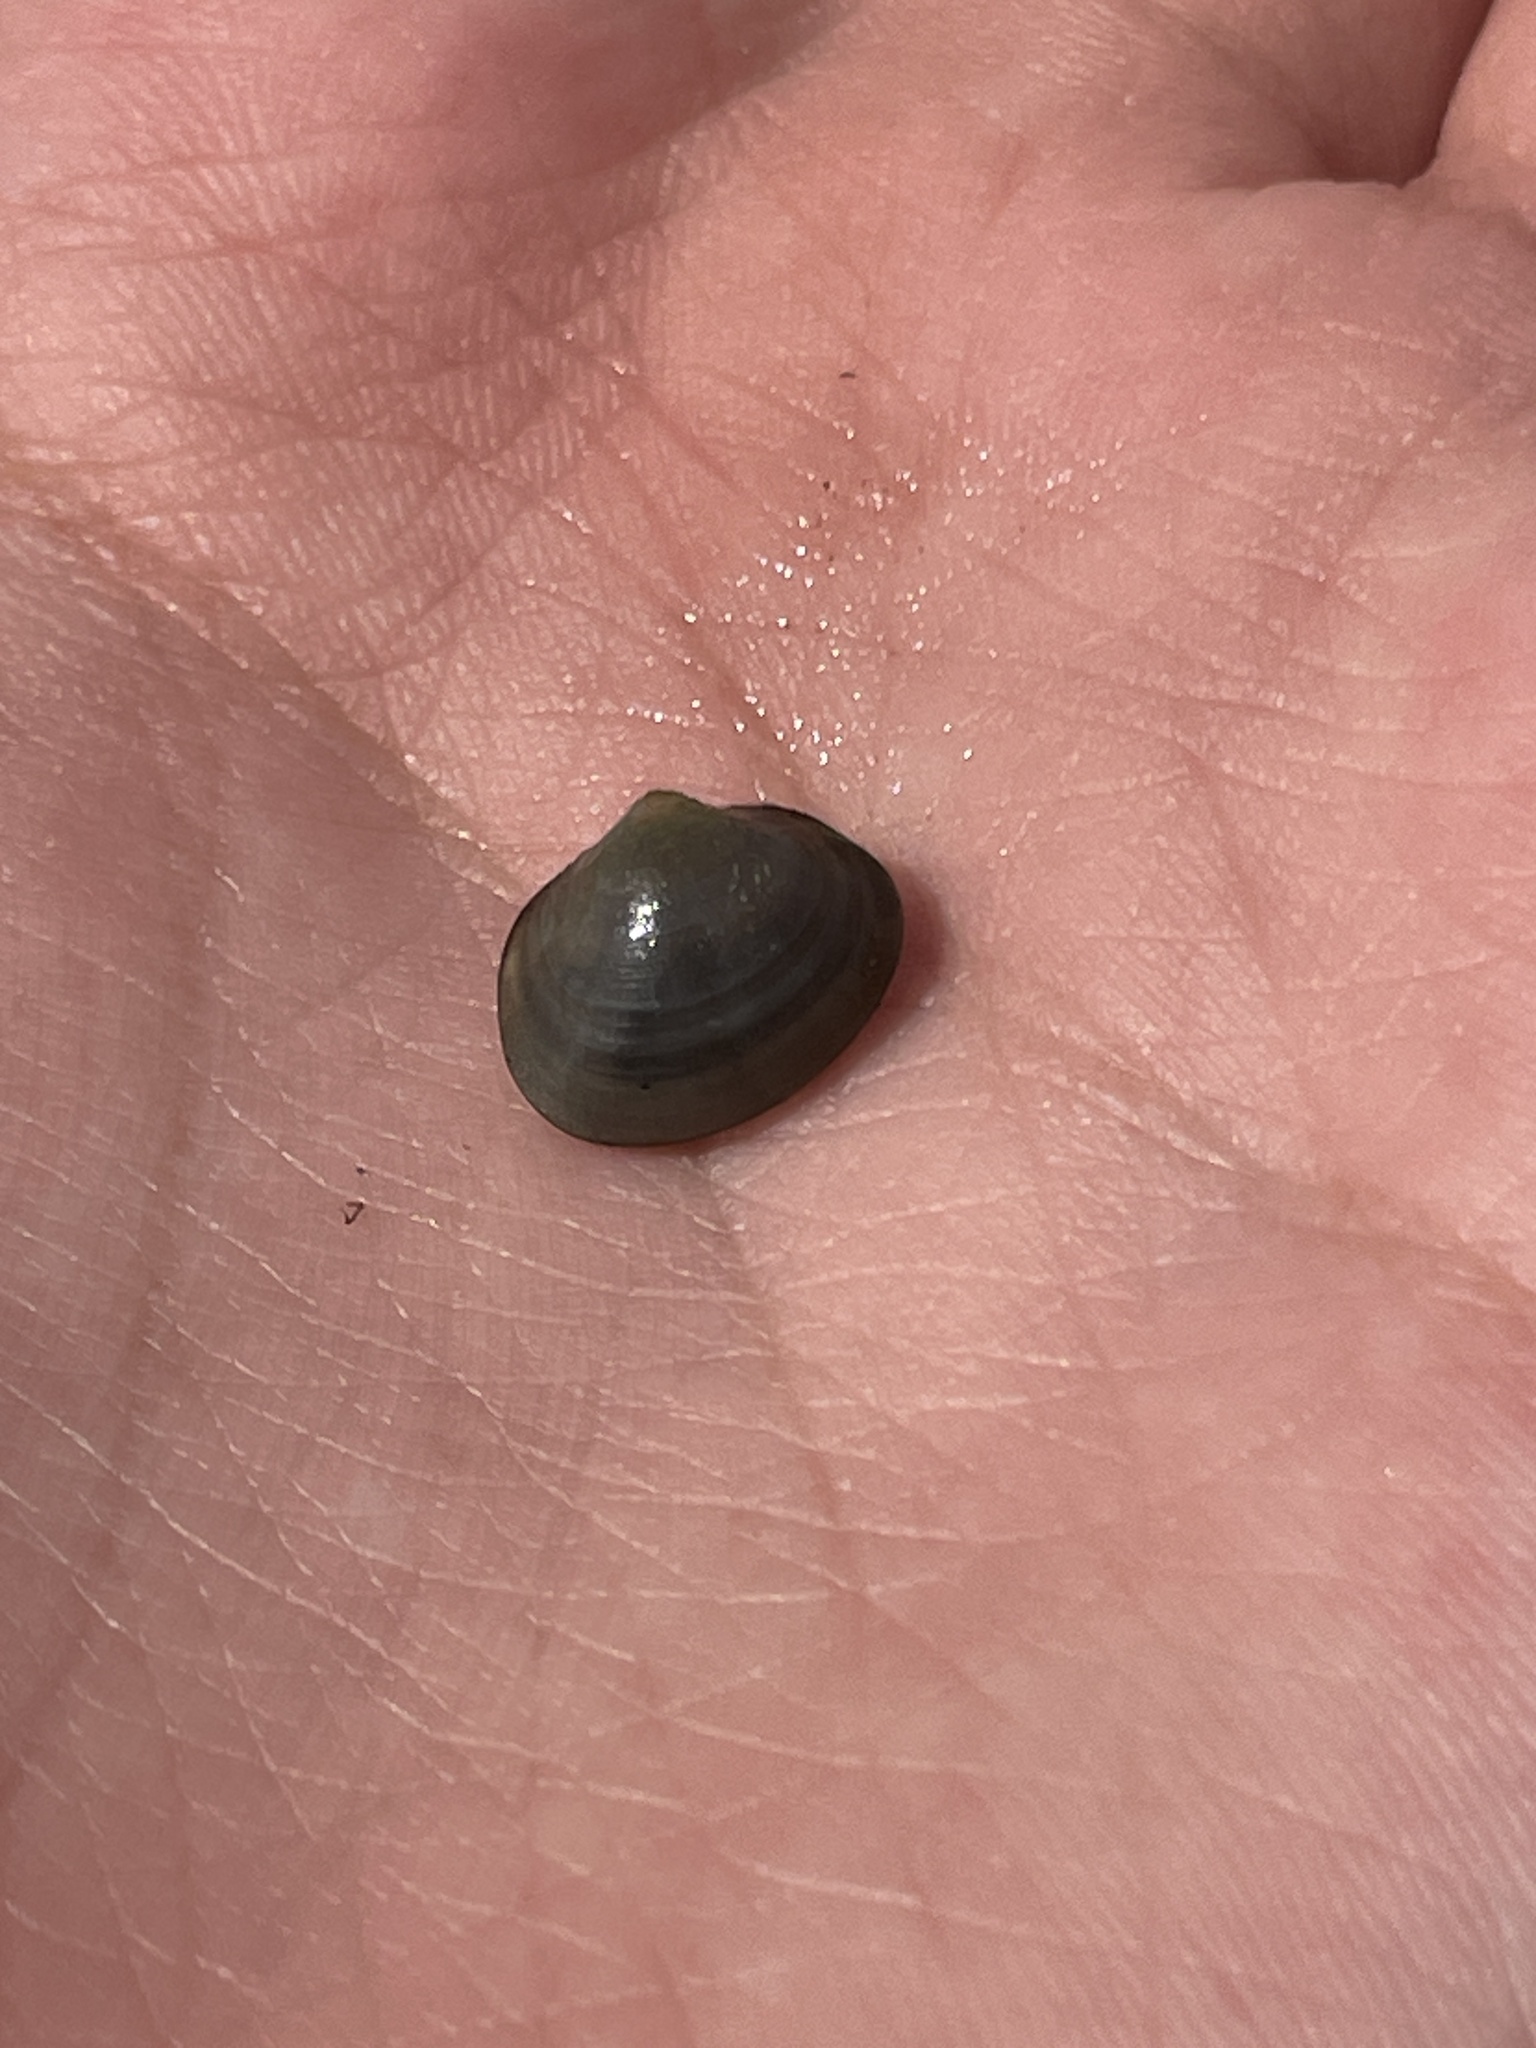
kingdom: Animalia
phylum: Mollusca
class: Bivalvia
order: Sphaeriida
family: Sphaeriidae
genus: Musculium
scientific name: Musculium lacustre
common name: Lake fingernailclam
